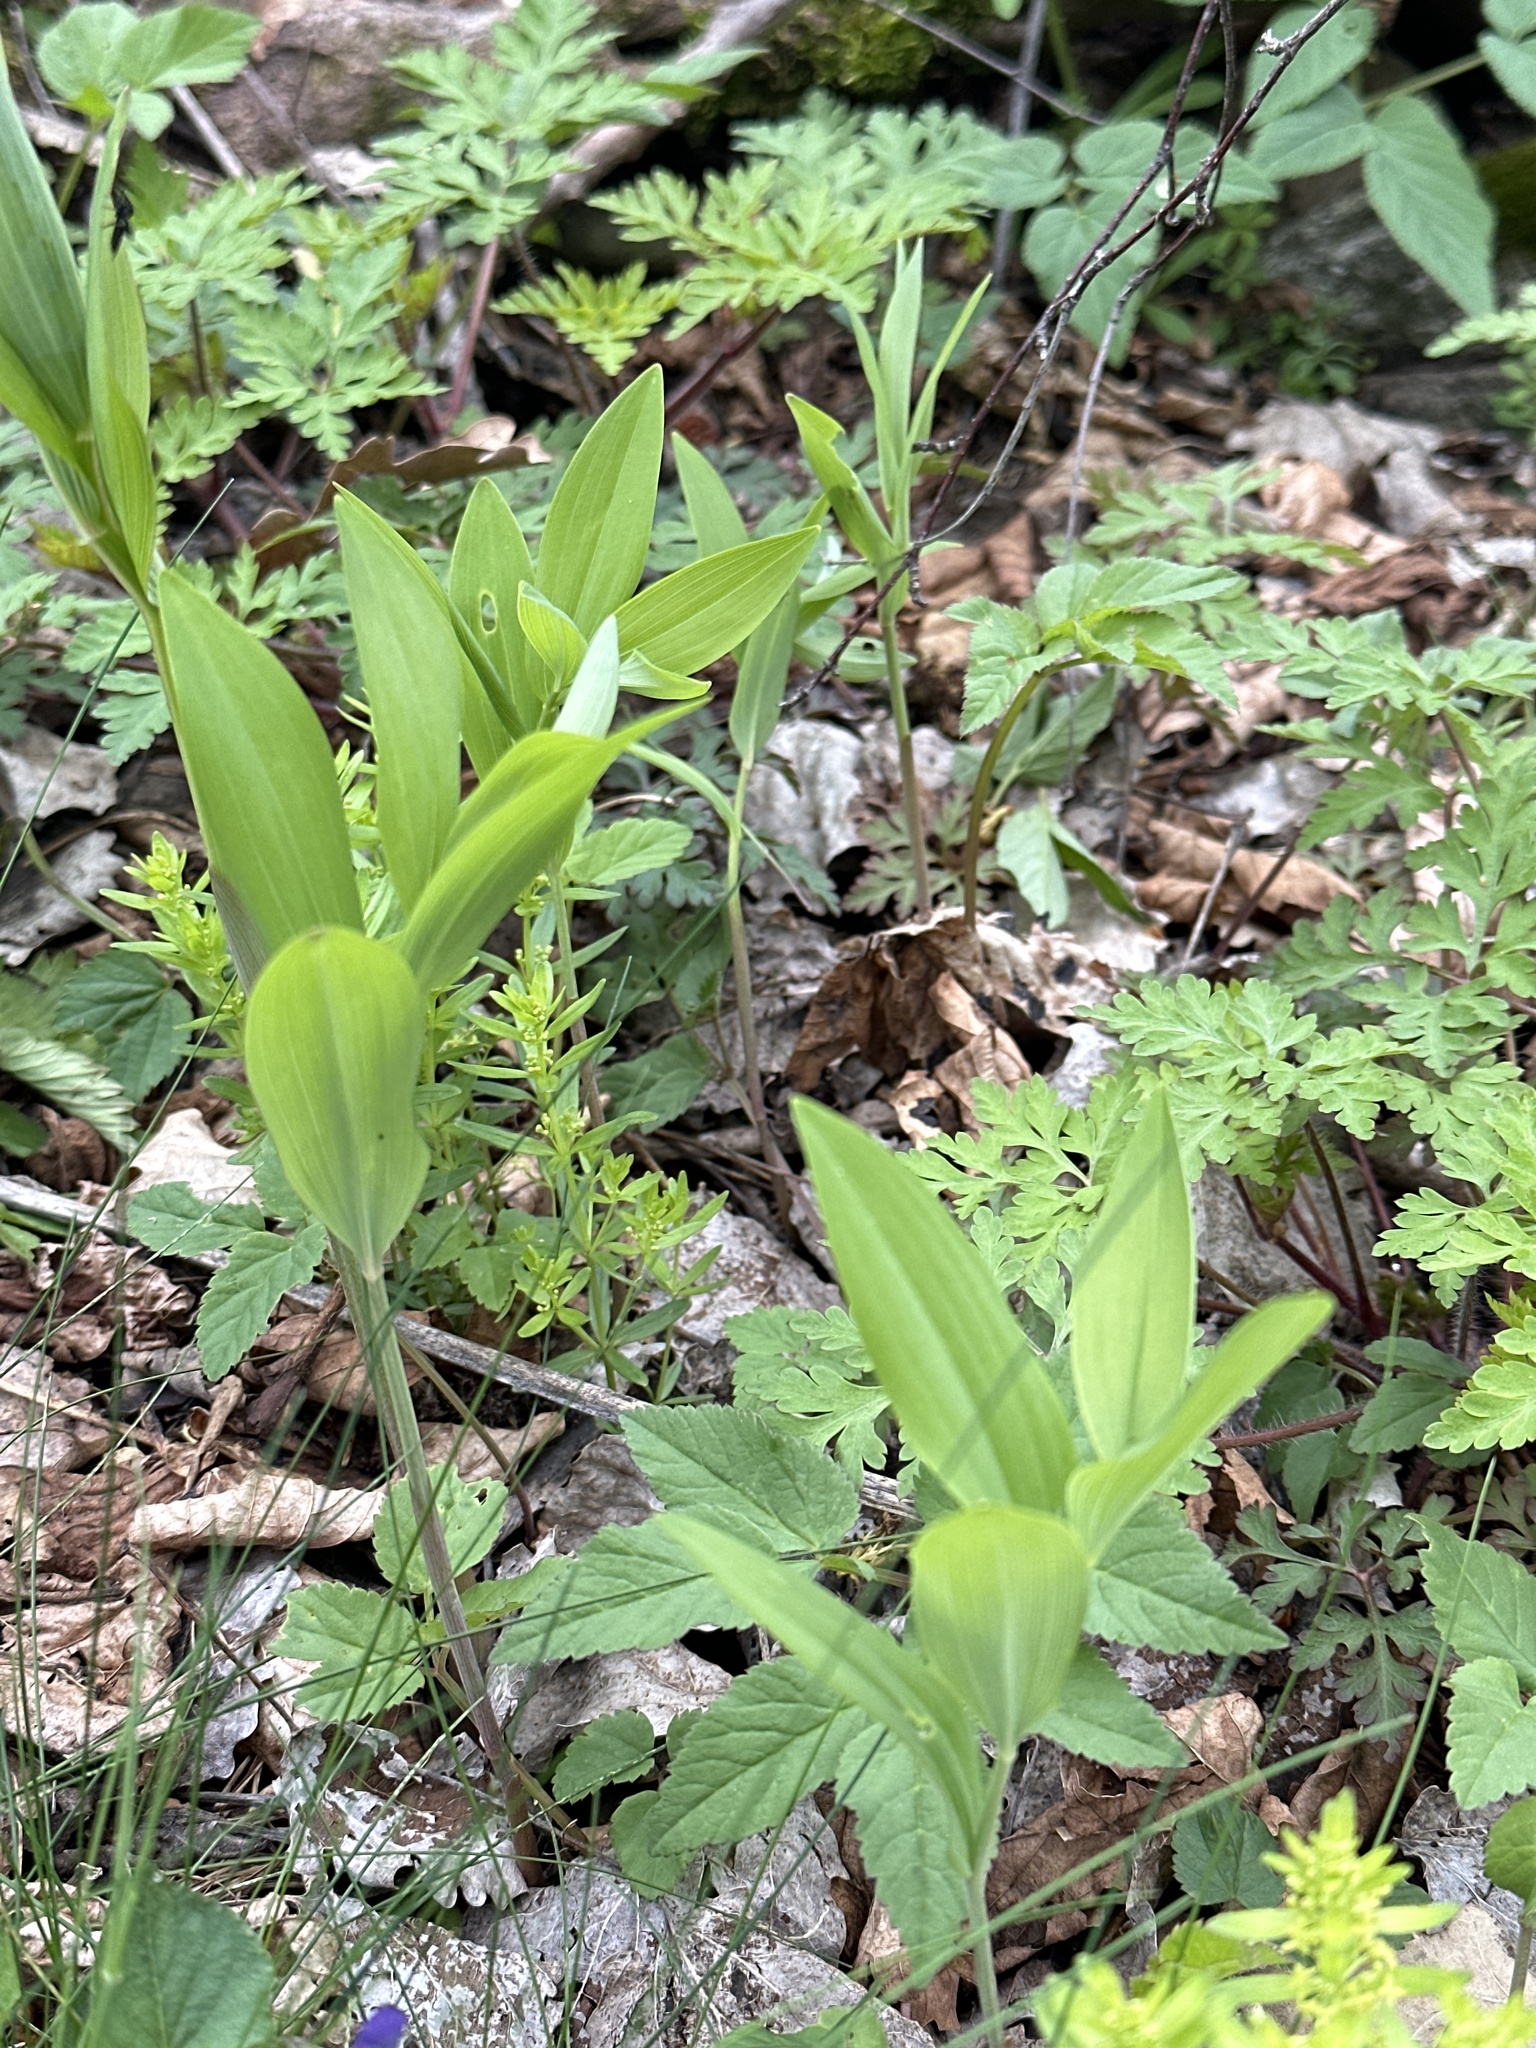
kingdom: Plantae
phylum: Tracheophyta
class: Liliopsida
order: Asparagales
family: Asparagaceae
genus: Polygonatum
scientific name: Polygonatum odoratum
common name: Angular solomon's-seal
